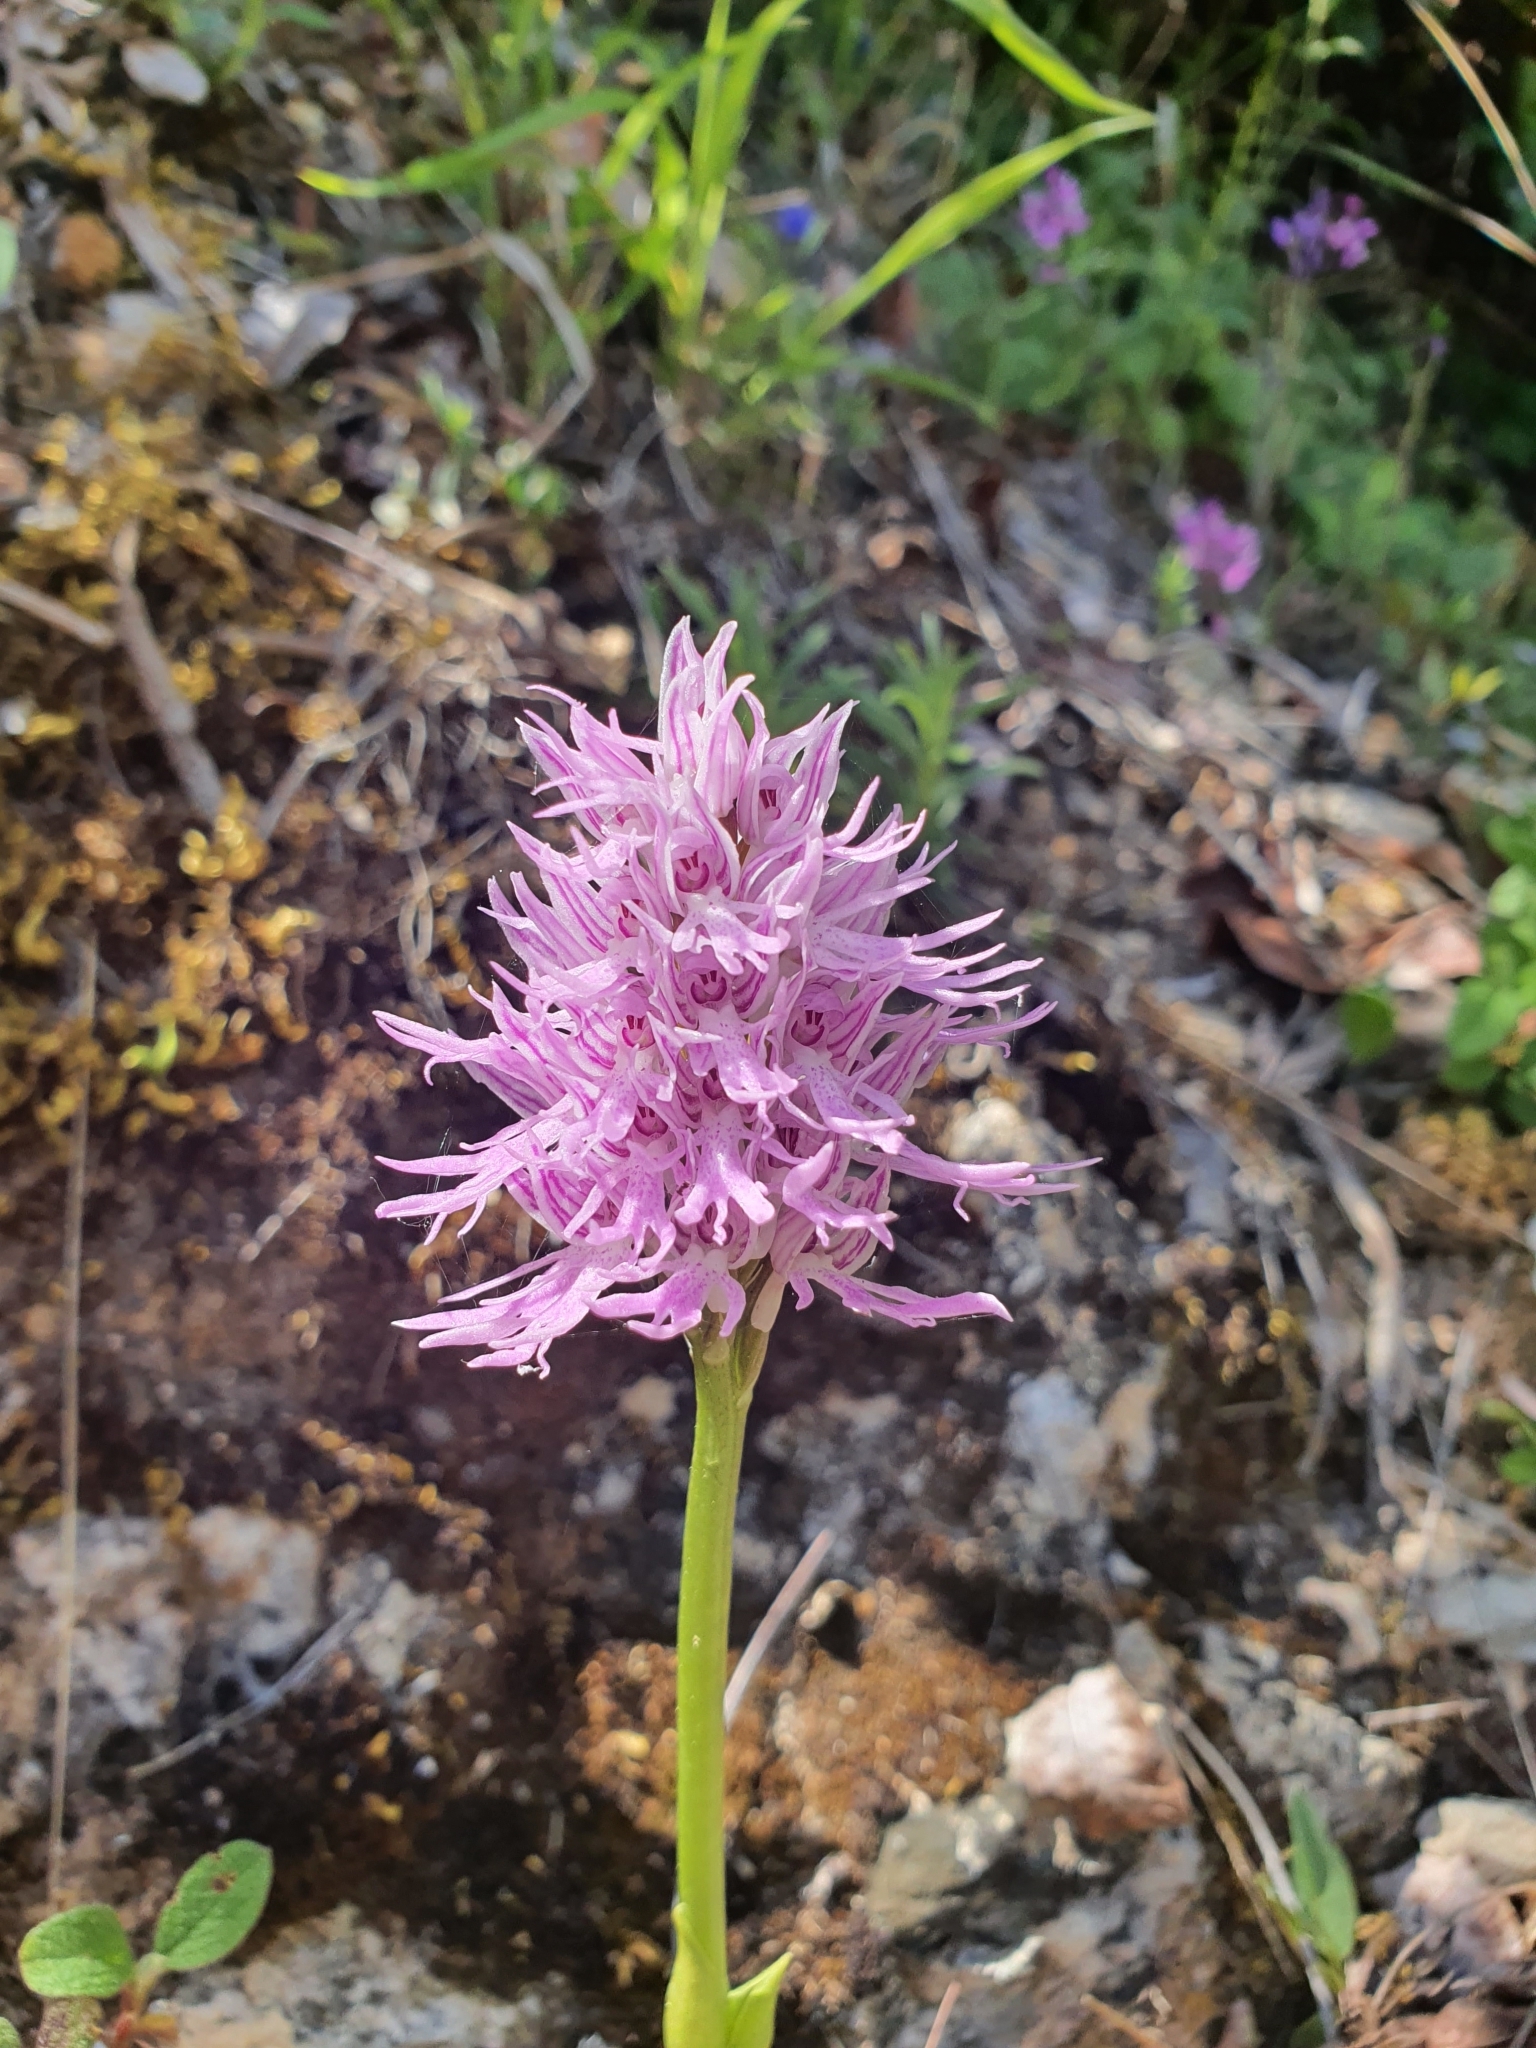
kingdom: Plantae
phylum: Tracheophyta
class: Liliopsida
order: Asparagales
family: Orchidaceae
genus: Orchis
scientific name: Orchis italica
